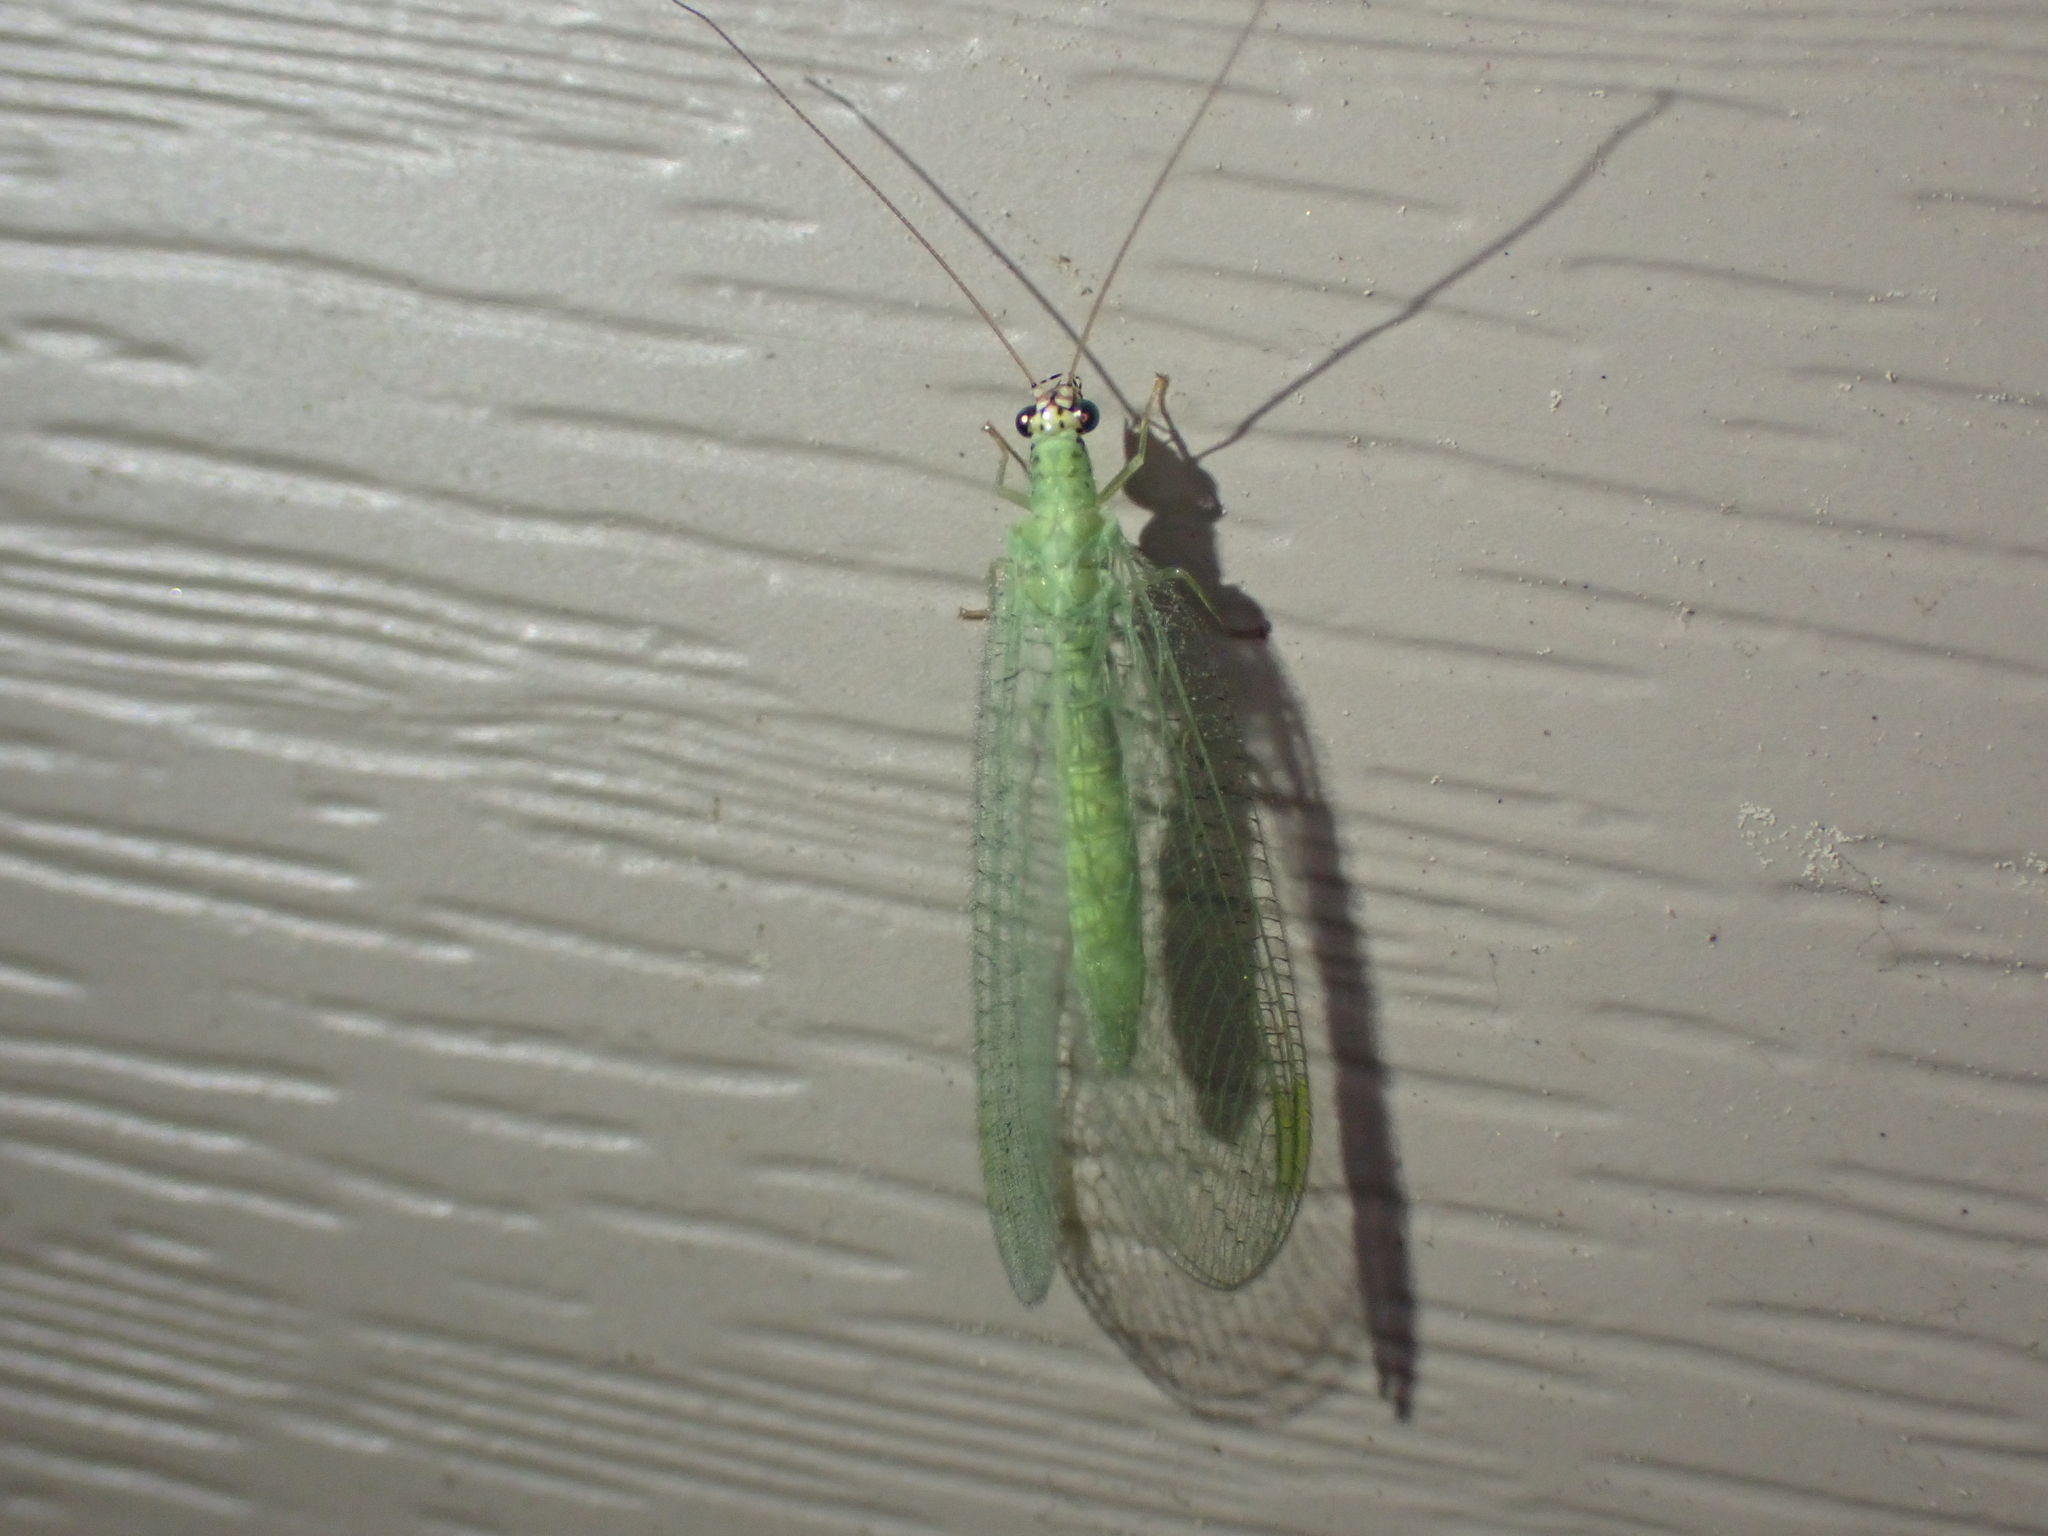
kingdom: Animalia
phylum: Arthropoda
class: Insecta
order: Neuroptera
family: Chrysopidae
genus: Chrysopa
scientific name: Chrysopa oculata
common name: Golden-eyed lacewing
